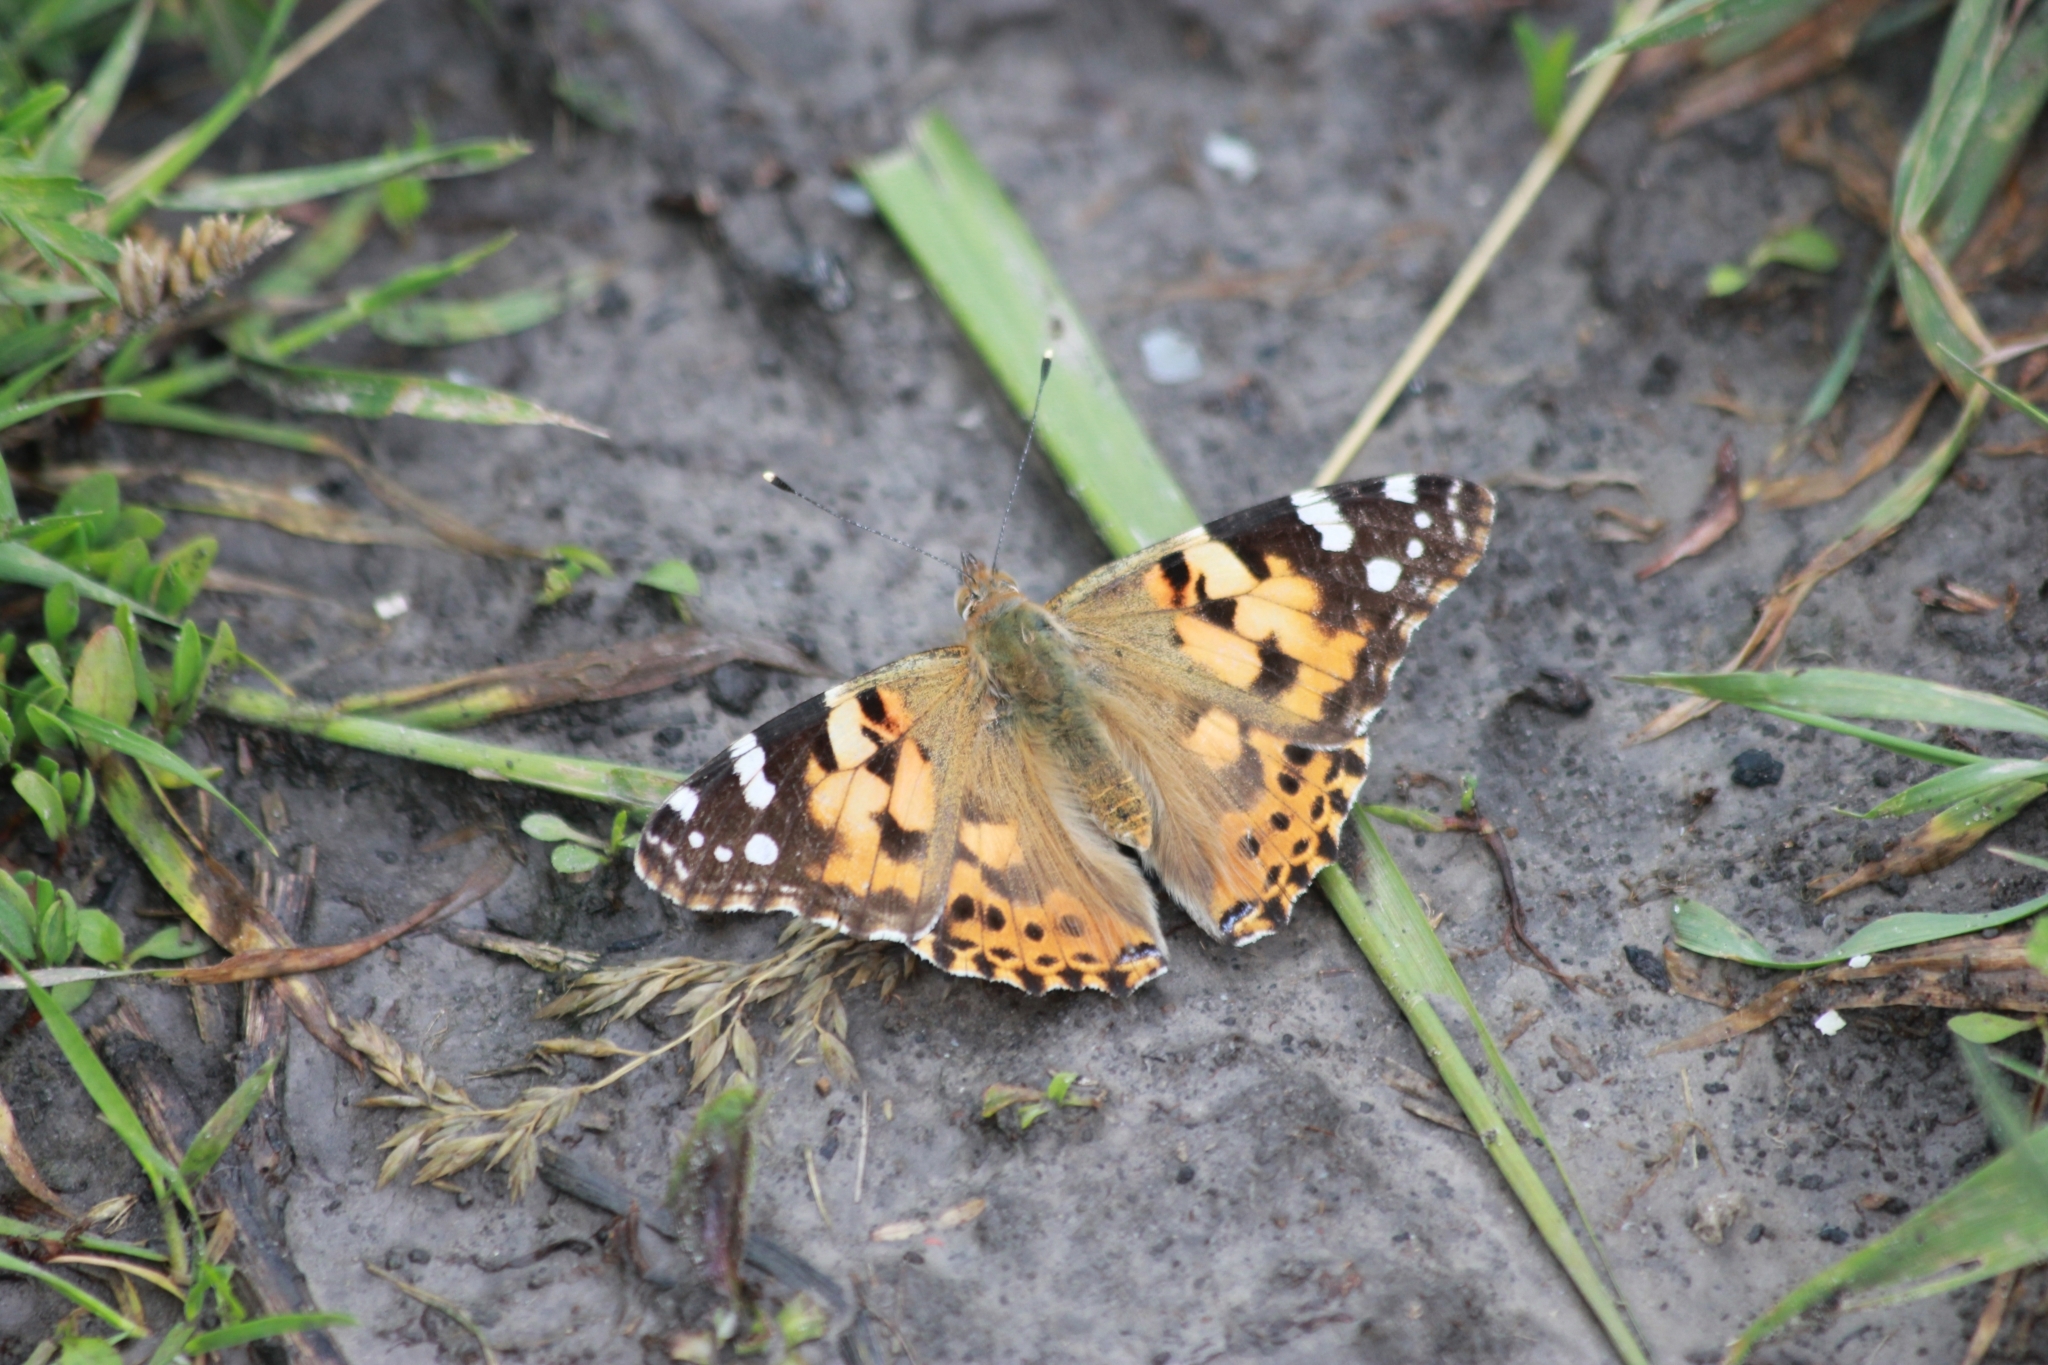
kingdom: Animalia
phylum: Arthropoda
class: Insecta
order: Lepidoptera
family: Nymphalidae
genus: Vanessa
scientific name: Vanessa cardui
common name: Painted lady
